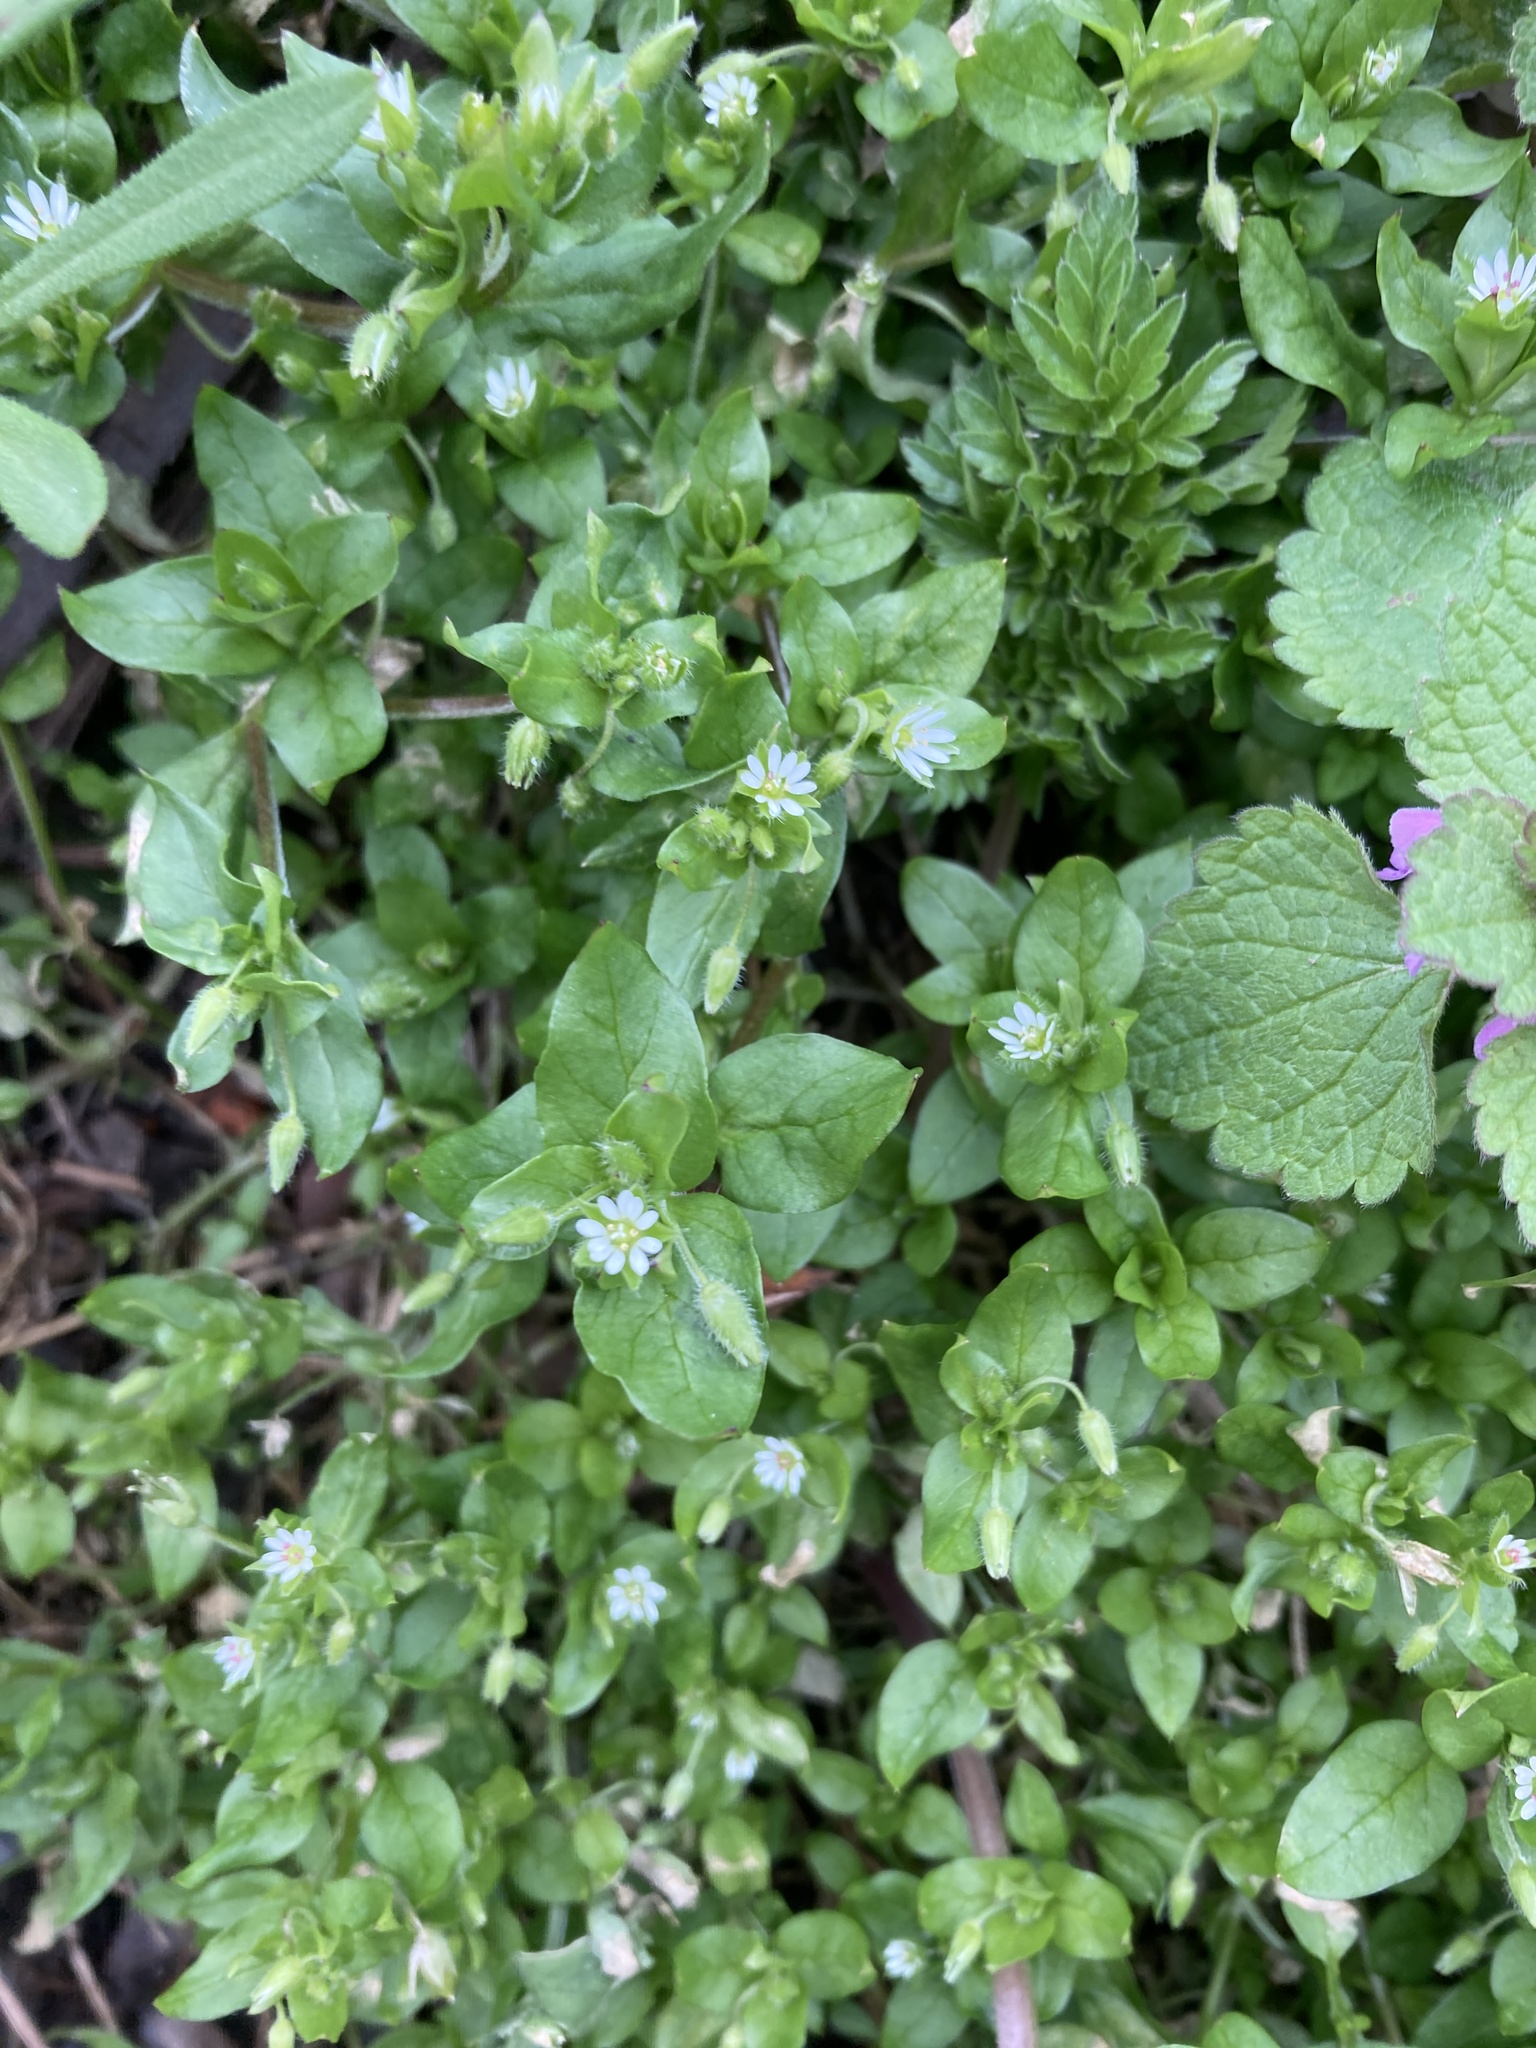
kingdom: Plantae
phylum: Tracheophyta
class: Magnoliopsida
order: Caryophyllales
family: Caryophyllaceae
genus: Stellaria
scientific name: Stellaria media
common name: Common chickweed
